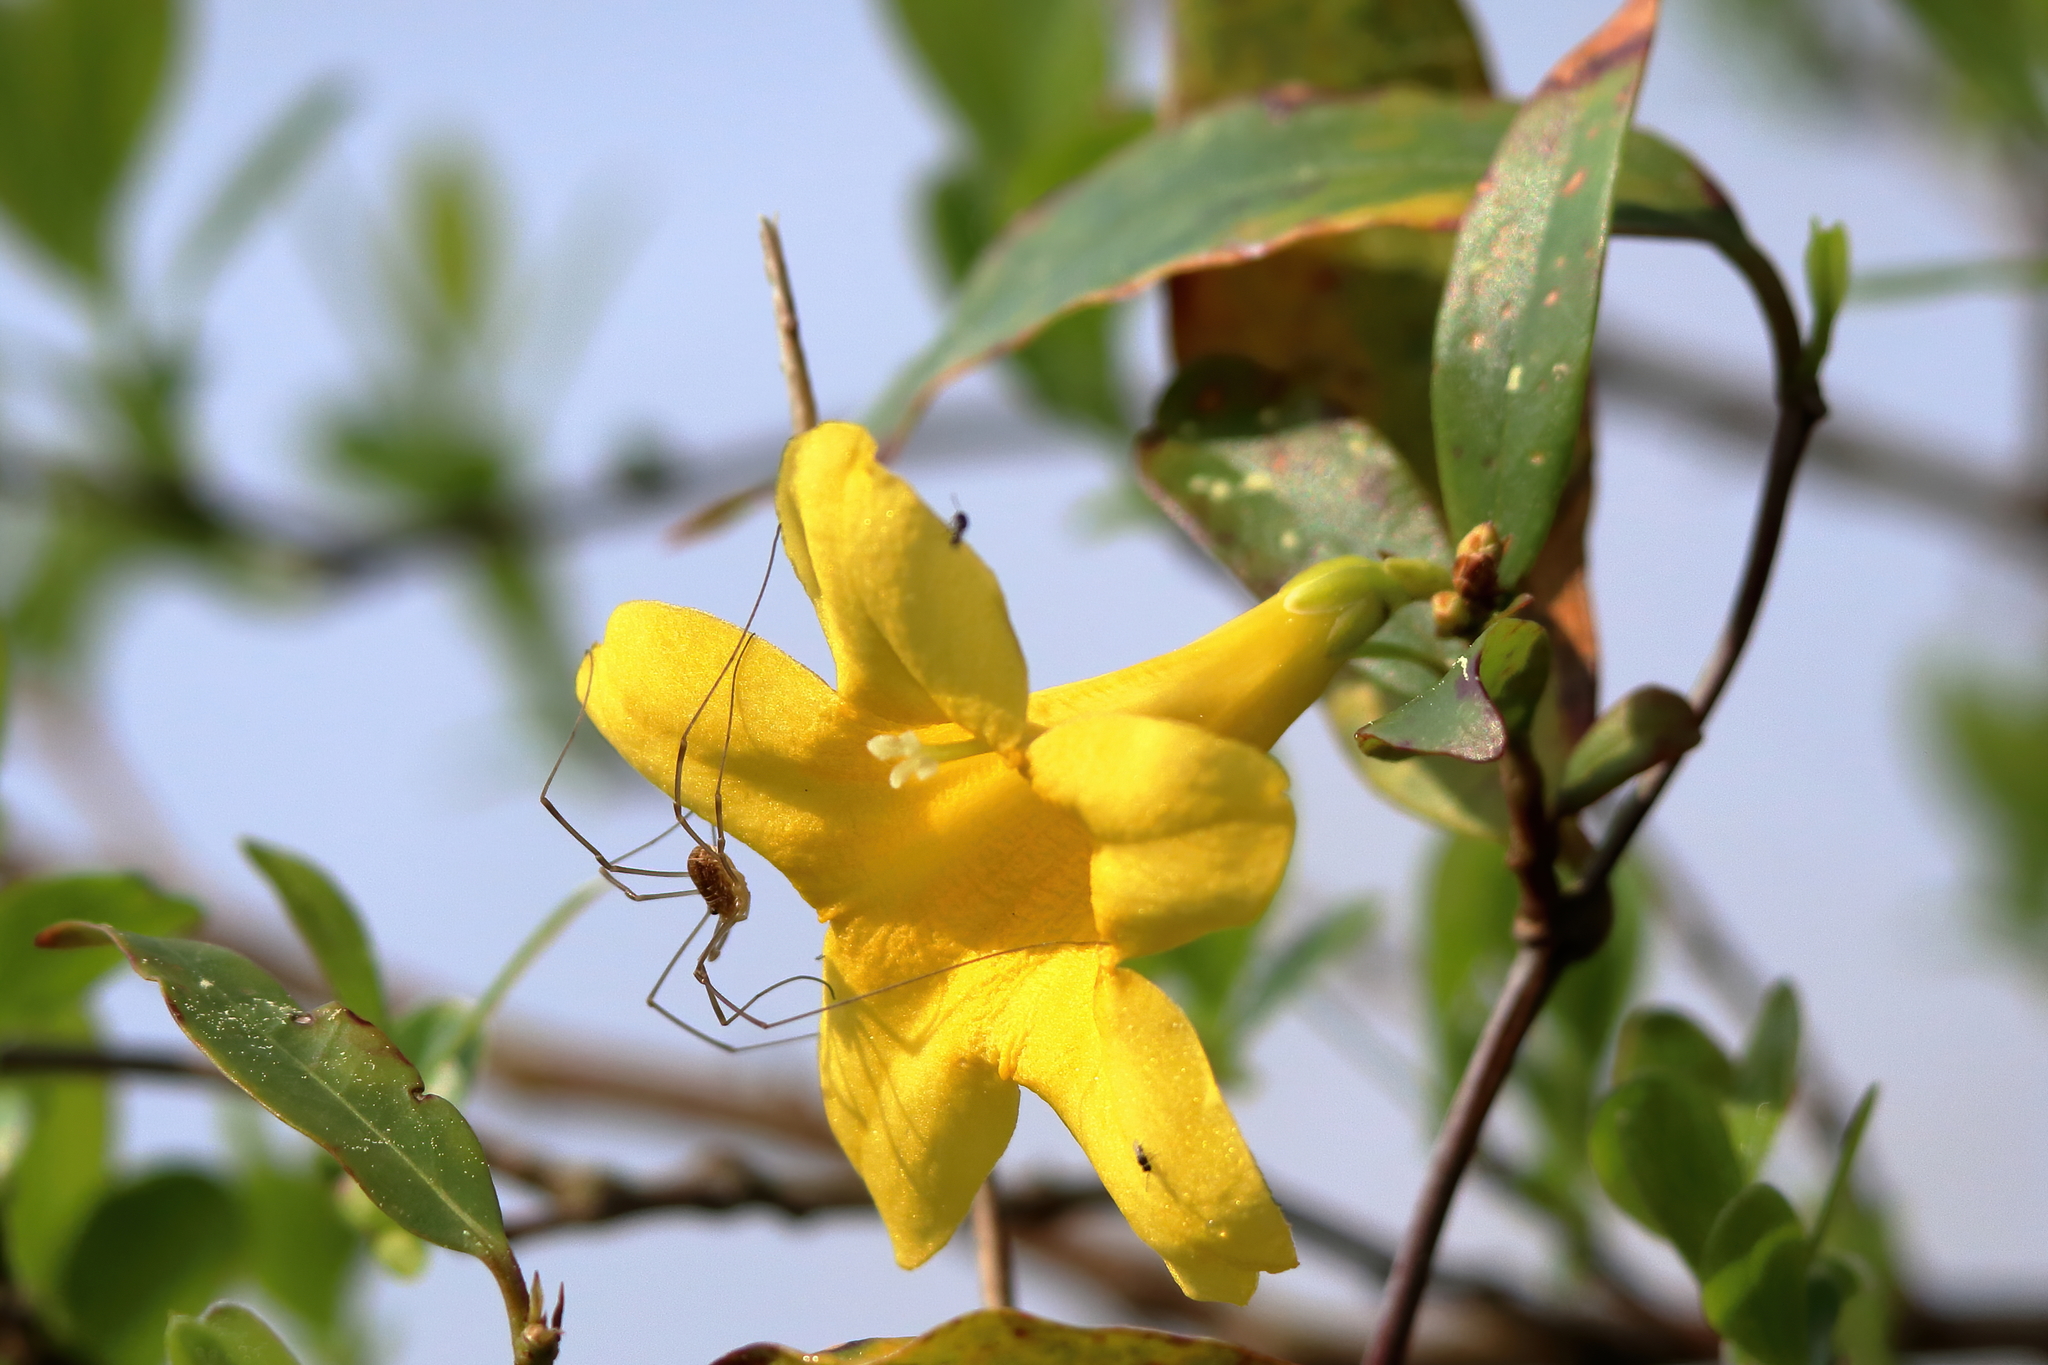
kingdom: Plantae
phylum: Tracheophyta
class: Magnoliopsida
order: Gentianales
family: Gelsemiaceae
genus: Gelsemium
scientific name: Gelsemium sempervirens
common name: Carolina-jasmine
